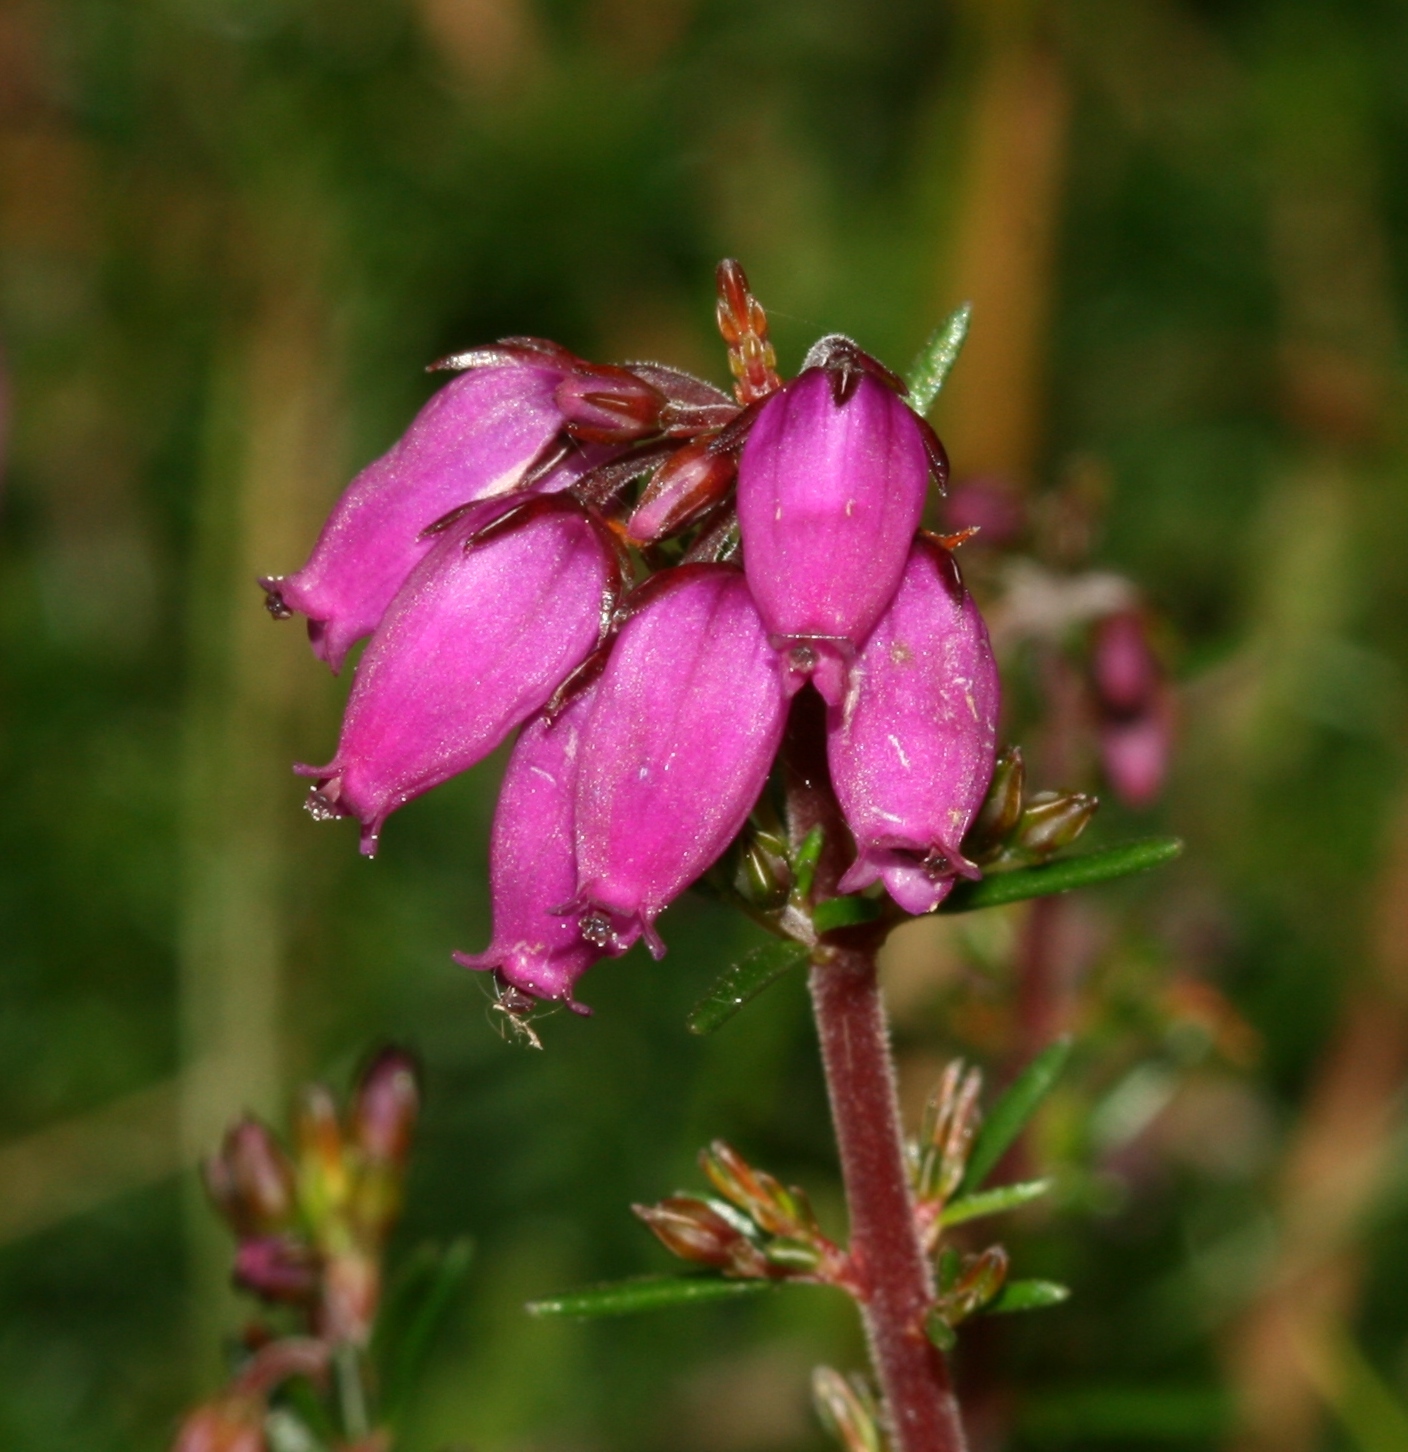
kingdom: Plantae
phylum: Tracheophyta
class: Magnoliopsida
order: Ericales
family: Ericaceae
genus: Erica
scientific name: Erica cinerea
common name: Bell heather
